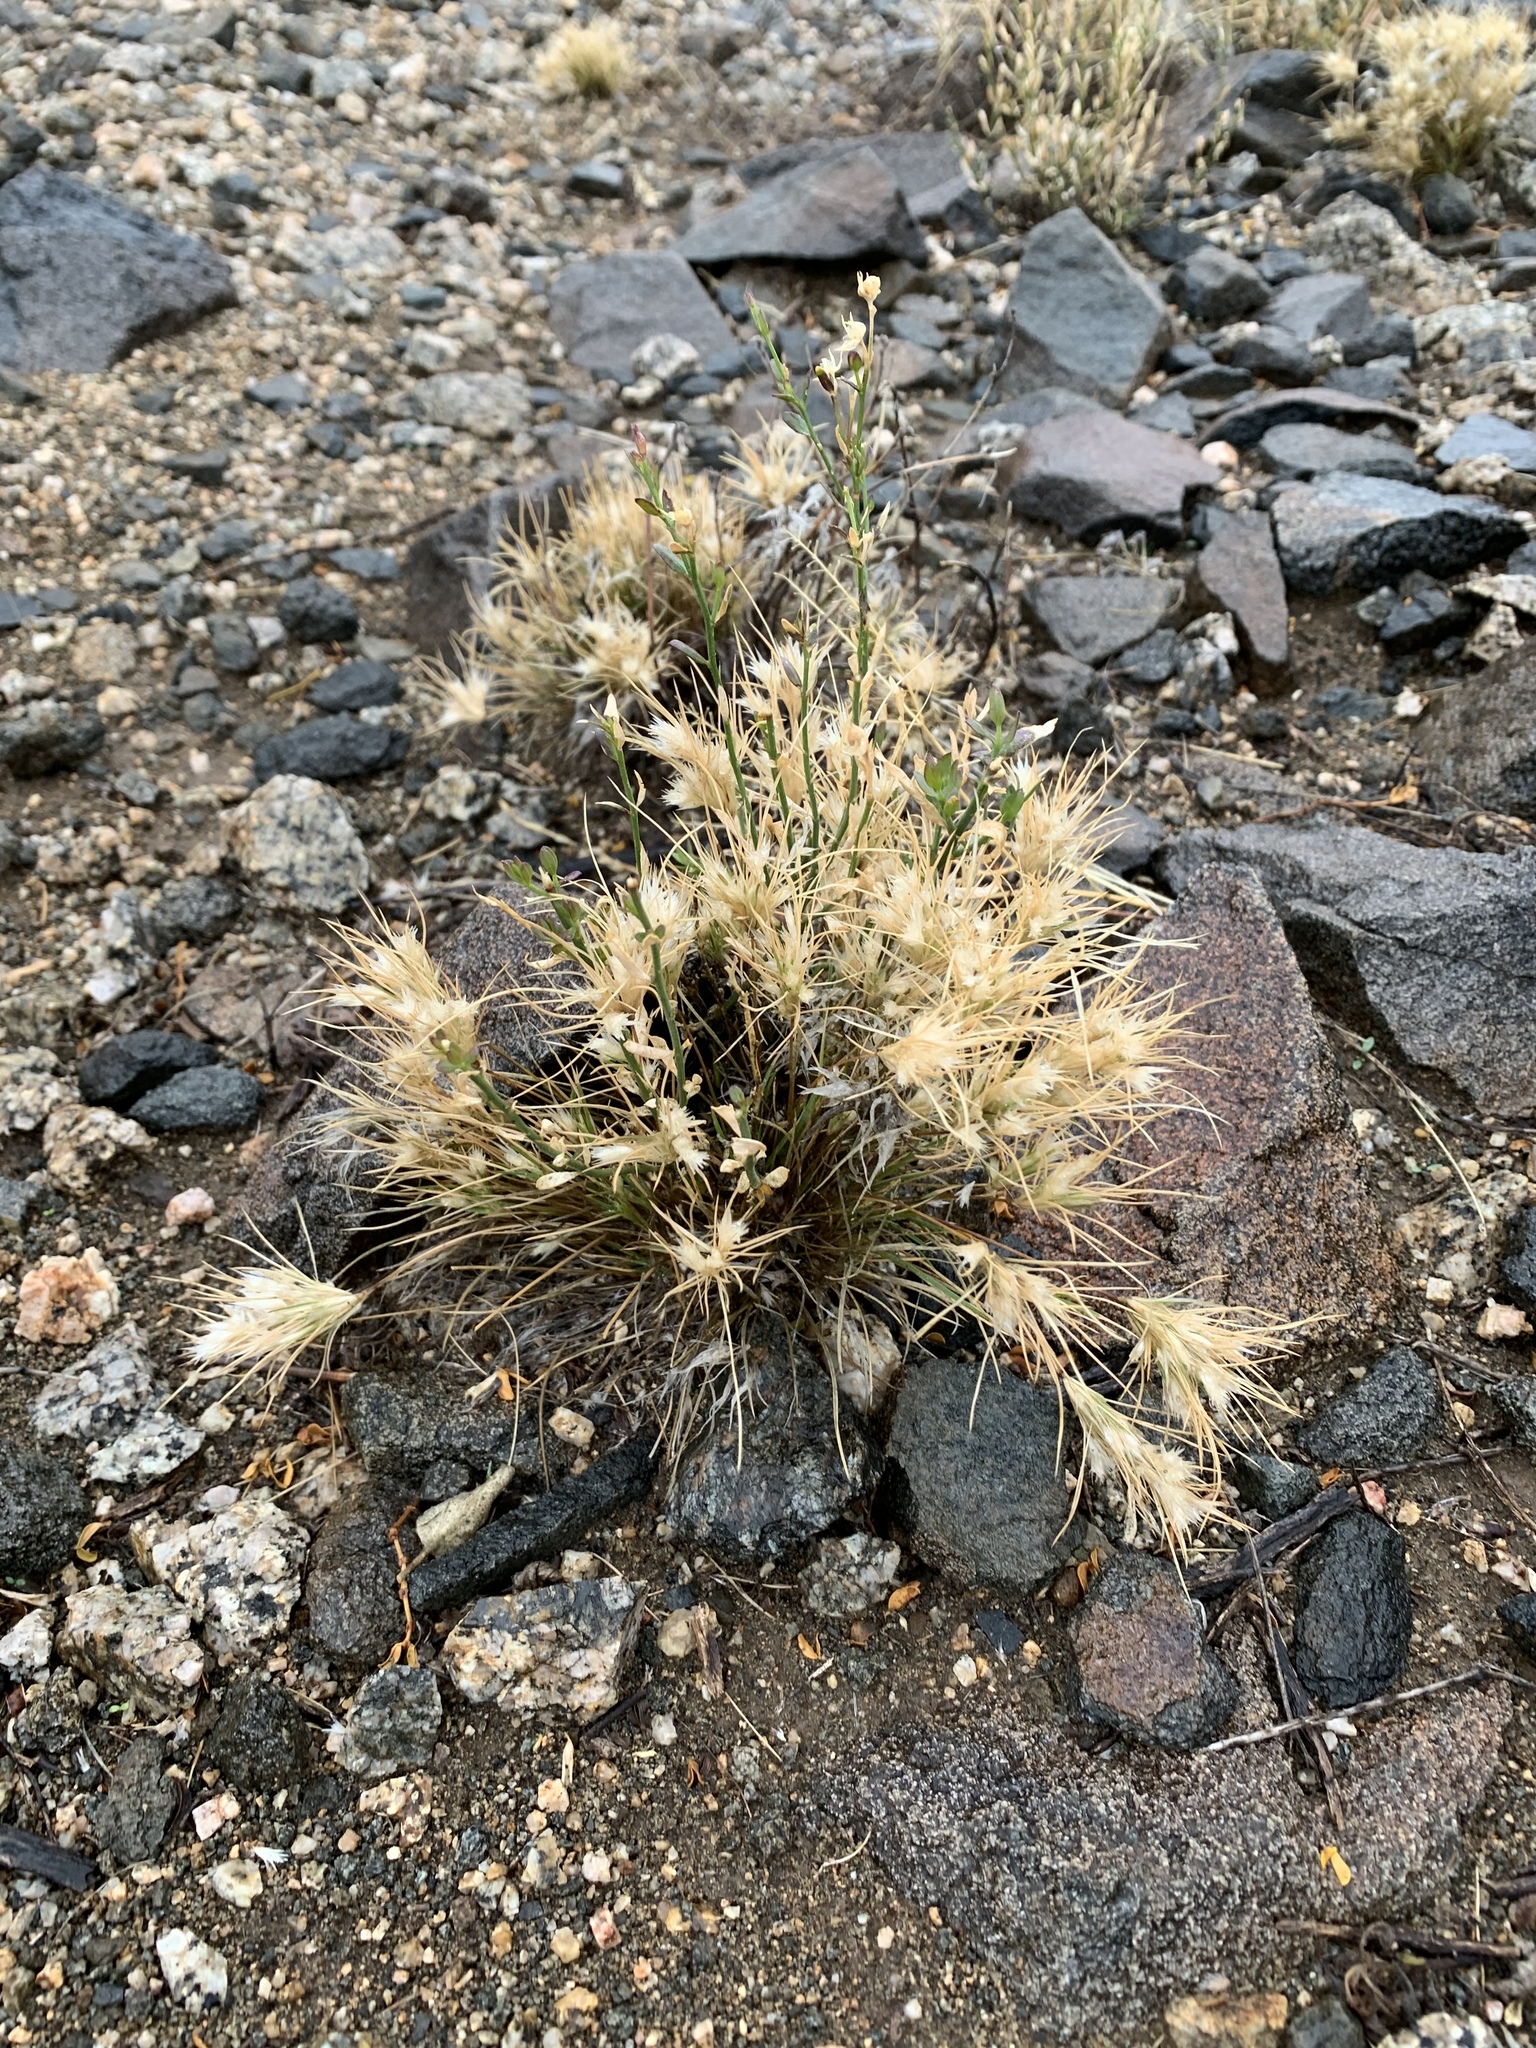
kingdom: Plantae
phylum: Tracheophyta
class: Liliopsida
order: Poales
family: Poaceae
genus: Dasyochloa
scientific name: Dasyochloa pulchella
